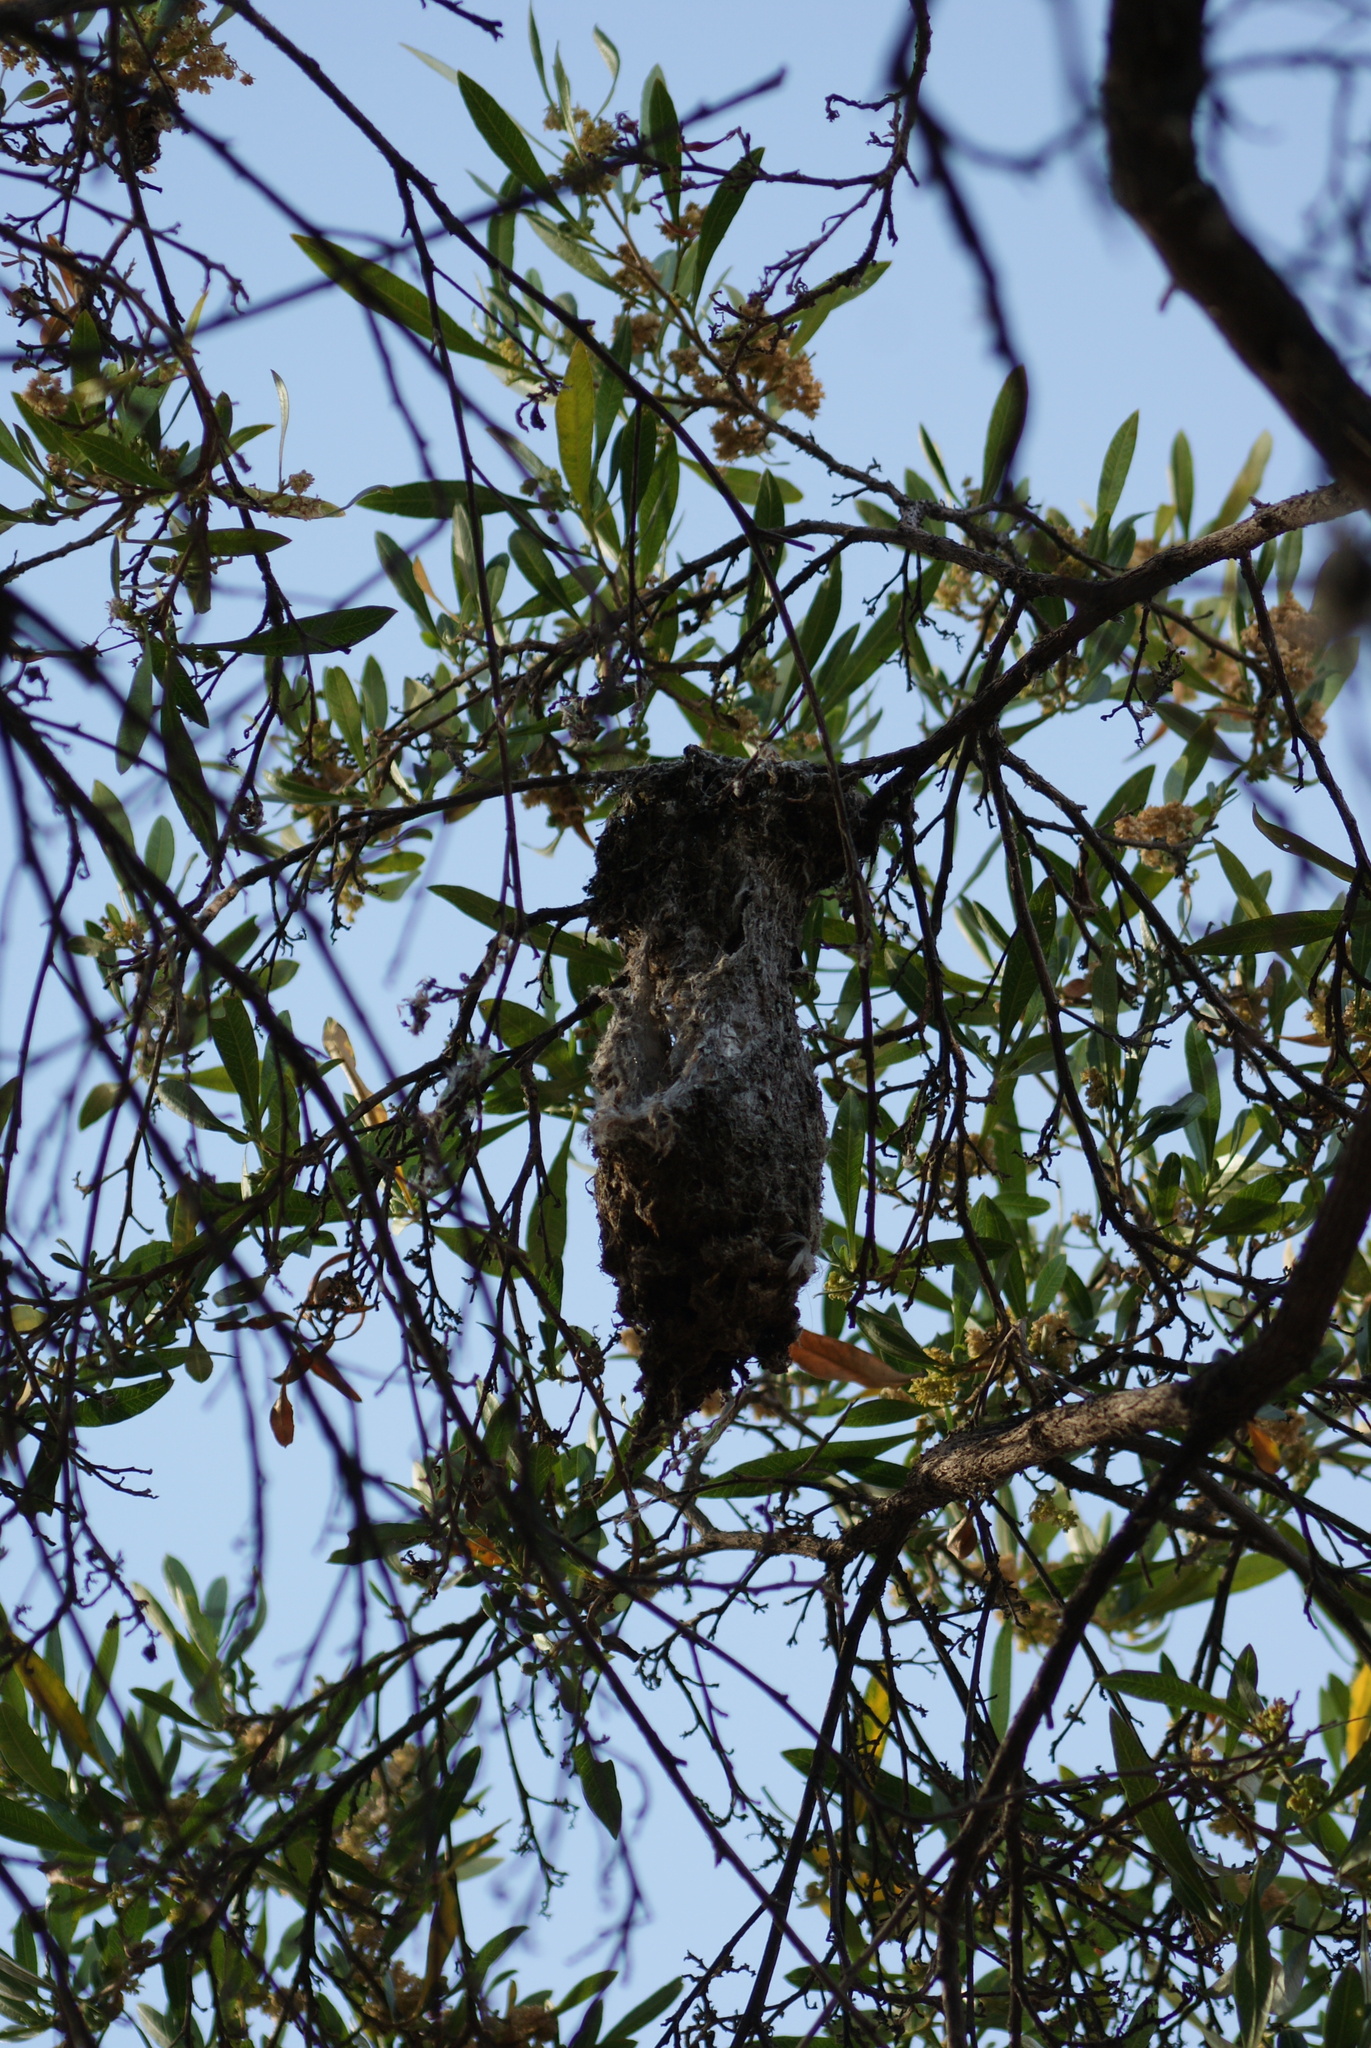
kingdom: Animalia
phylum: Chordata
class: Aves
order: Passeriformes
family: Aegithalidae
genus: Psaltriparus
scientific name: Psaltriparus minimus
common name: American bushtit
